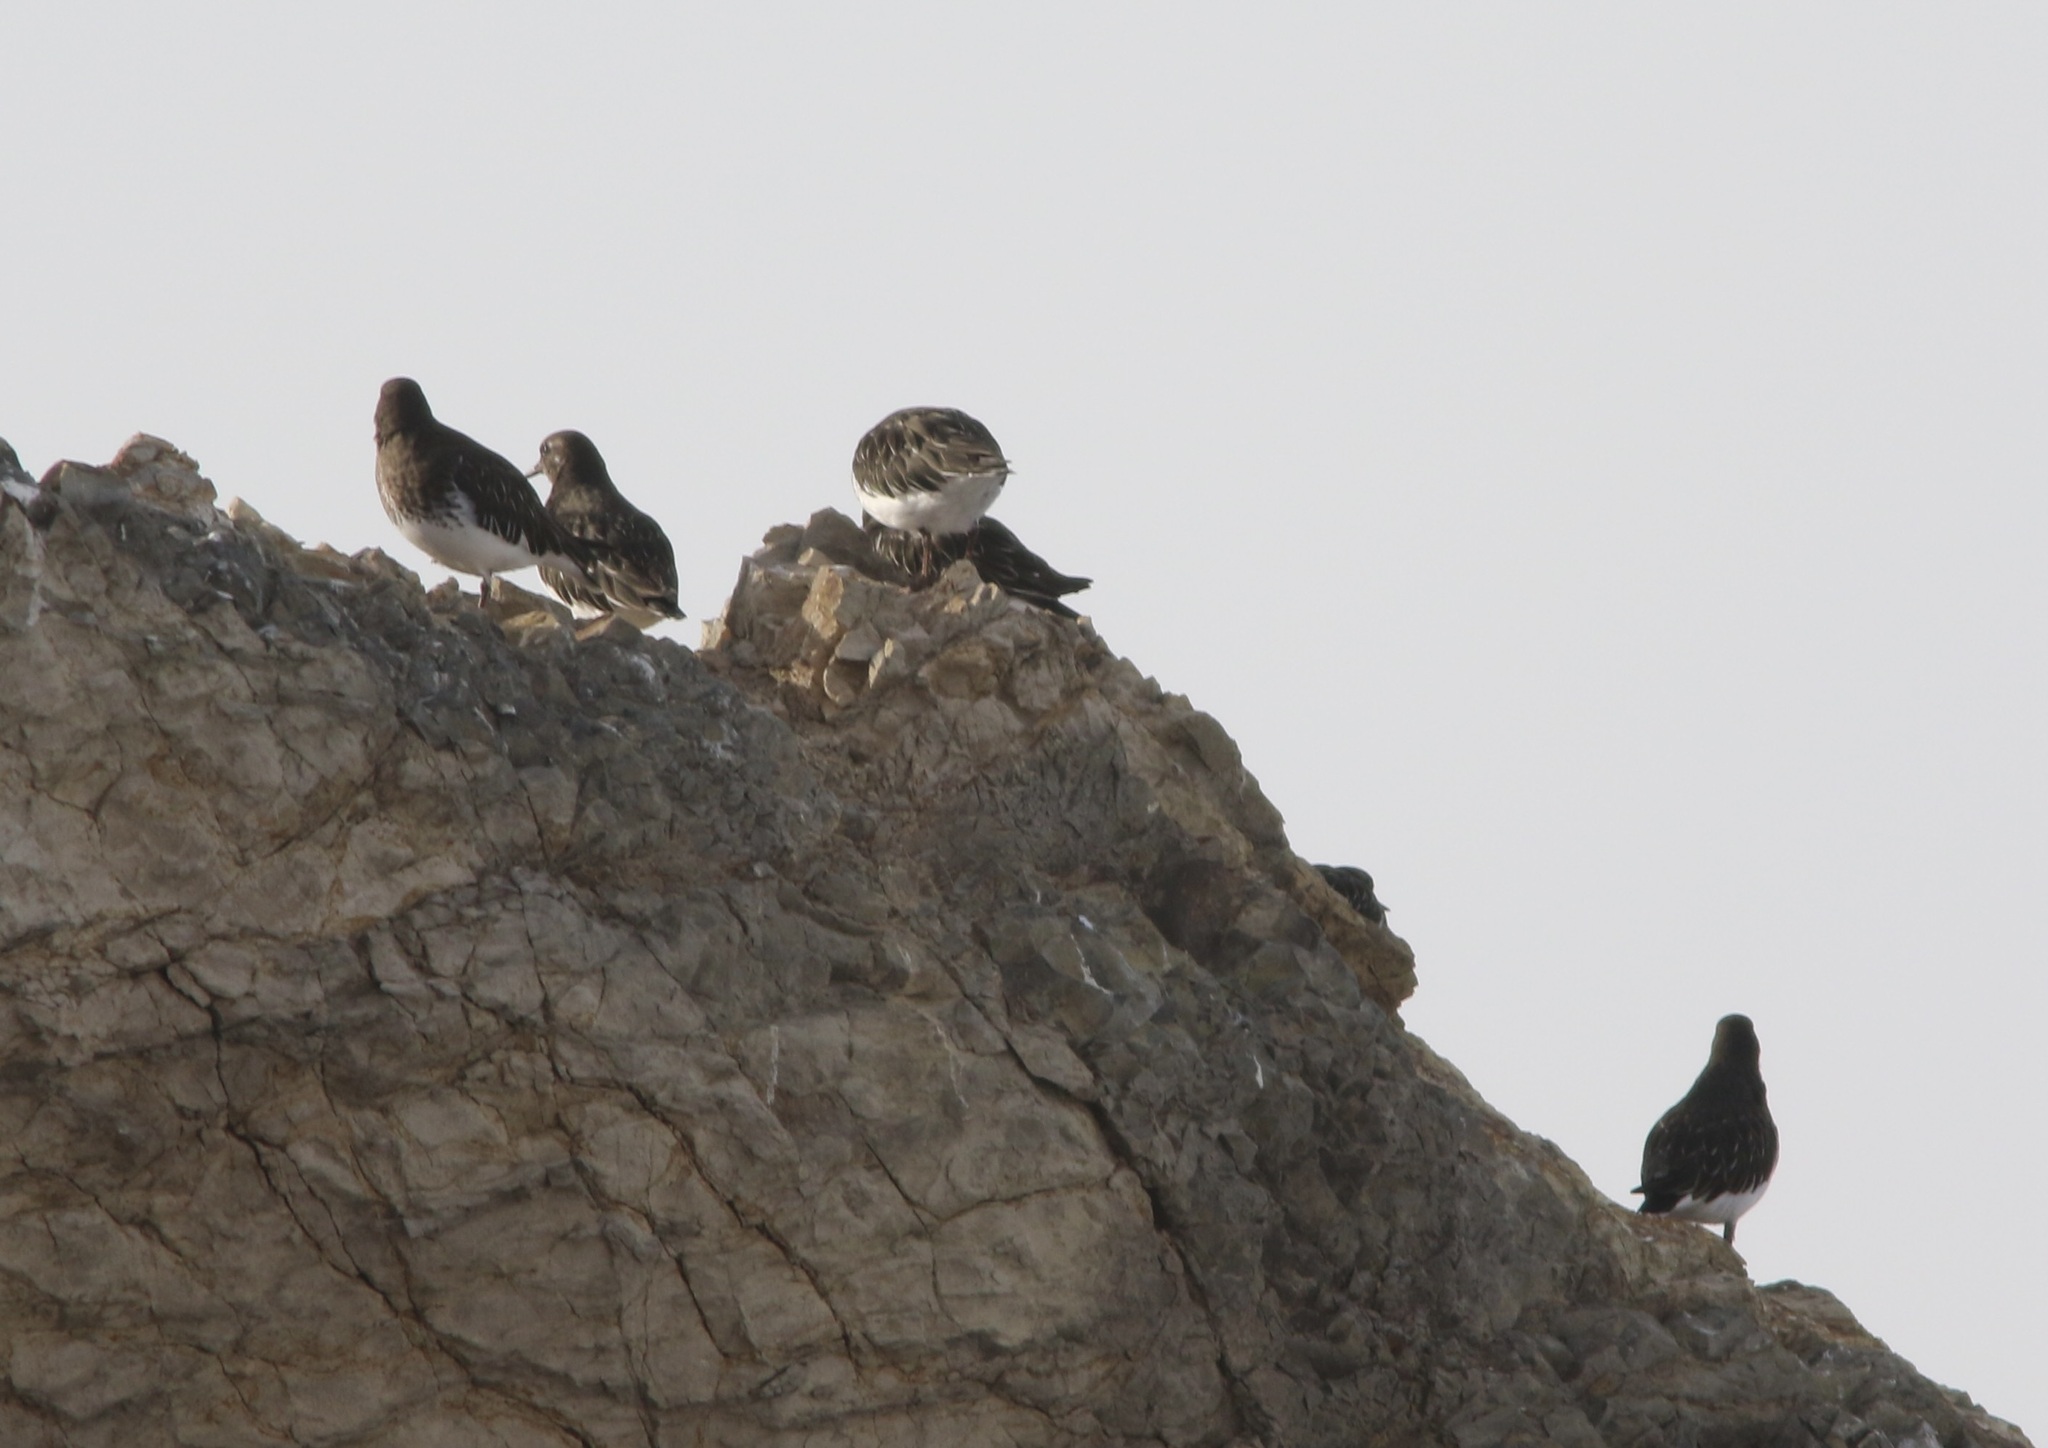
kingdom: Animalia
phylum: Chordata
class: Aves
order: Charadriiformes
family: Scolopacidae
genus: Arenaria
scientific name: Arenaria melanocephala
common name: Black turnstone
